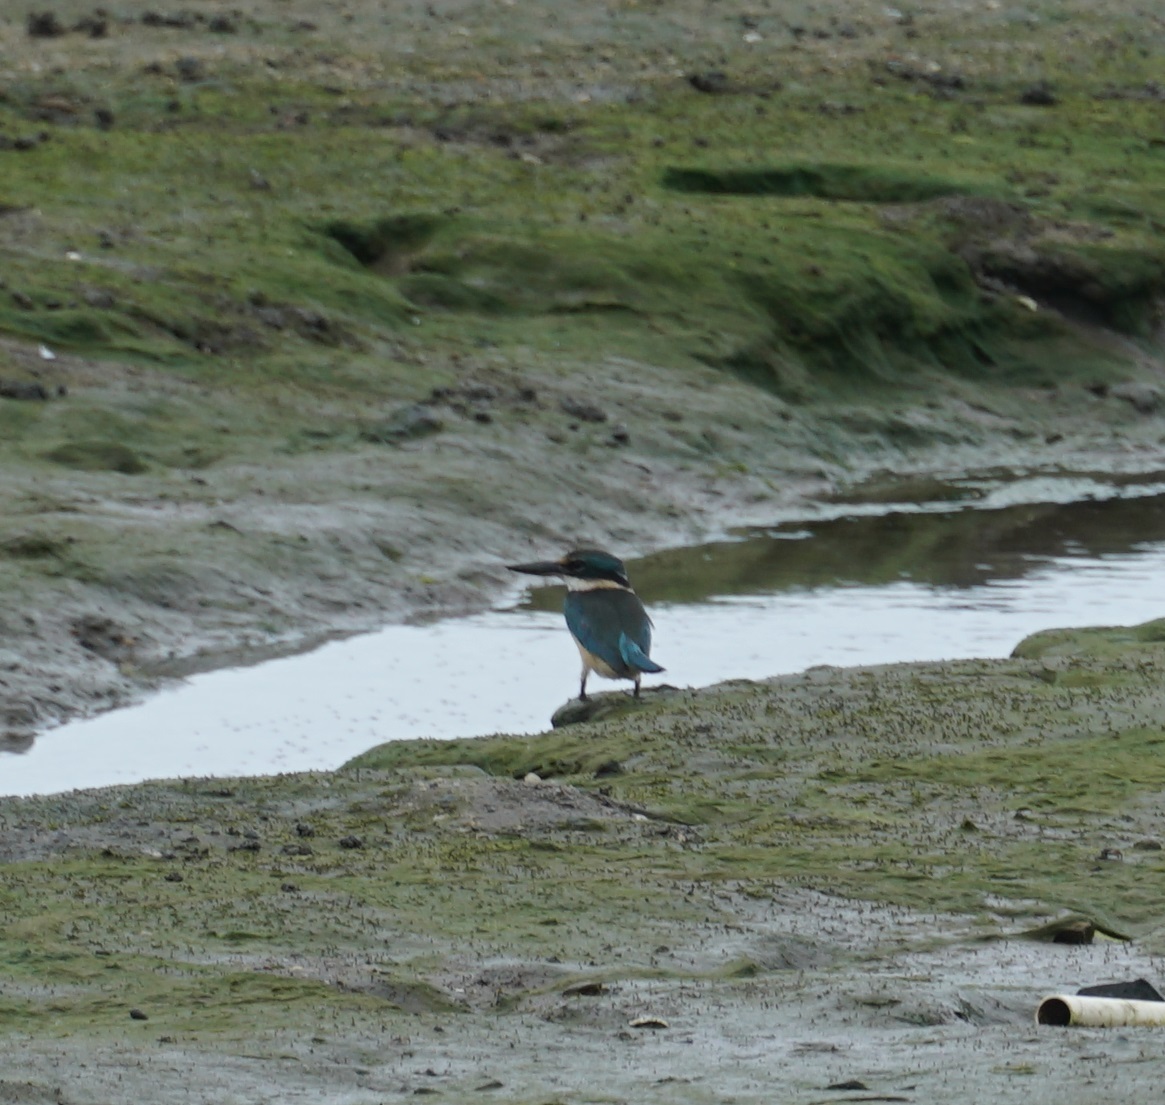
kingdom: Animalia
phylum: Chordata
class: Aves
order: Coraciiformes
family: Alcedinidae
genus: Todiramphus
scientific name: Todiramphus sanctus
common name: Sacred kingfisher
